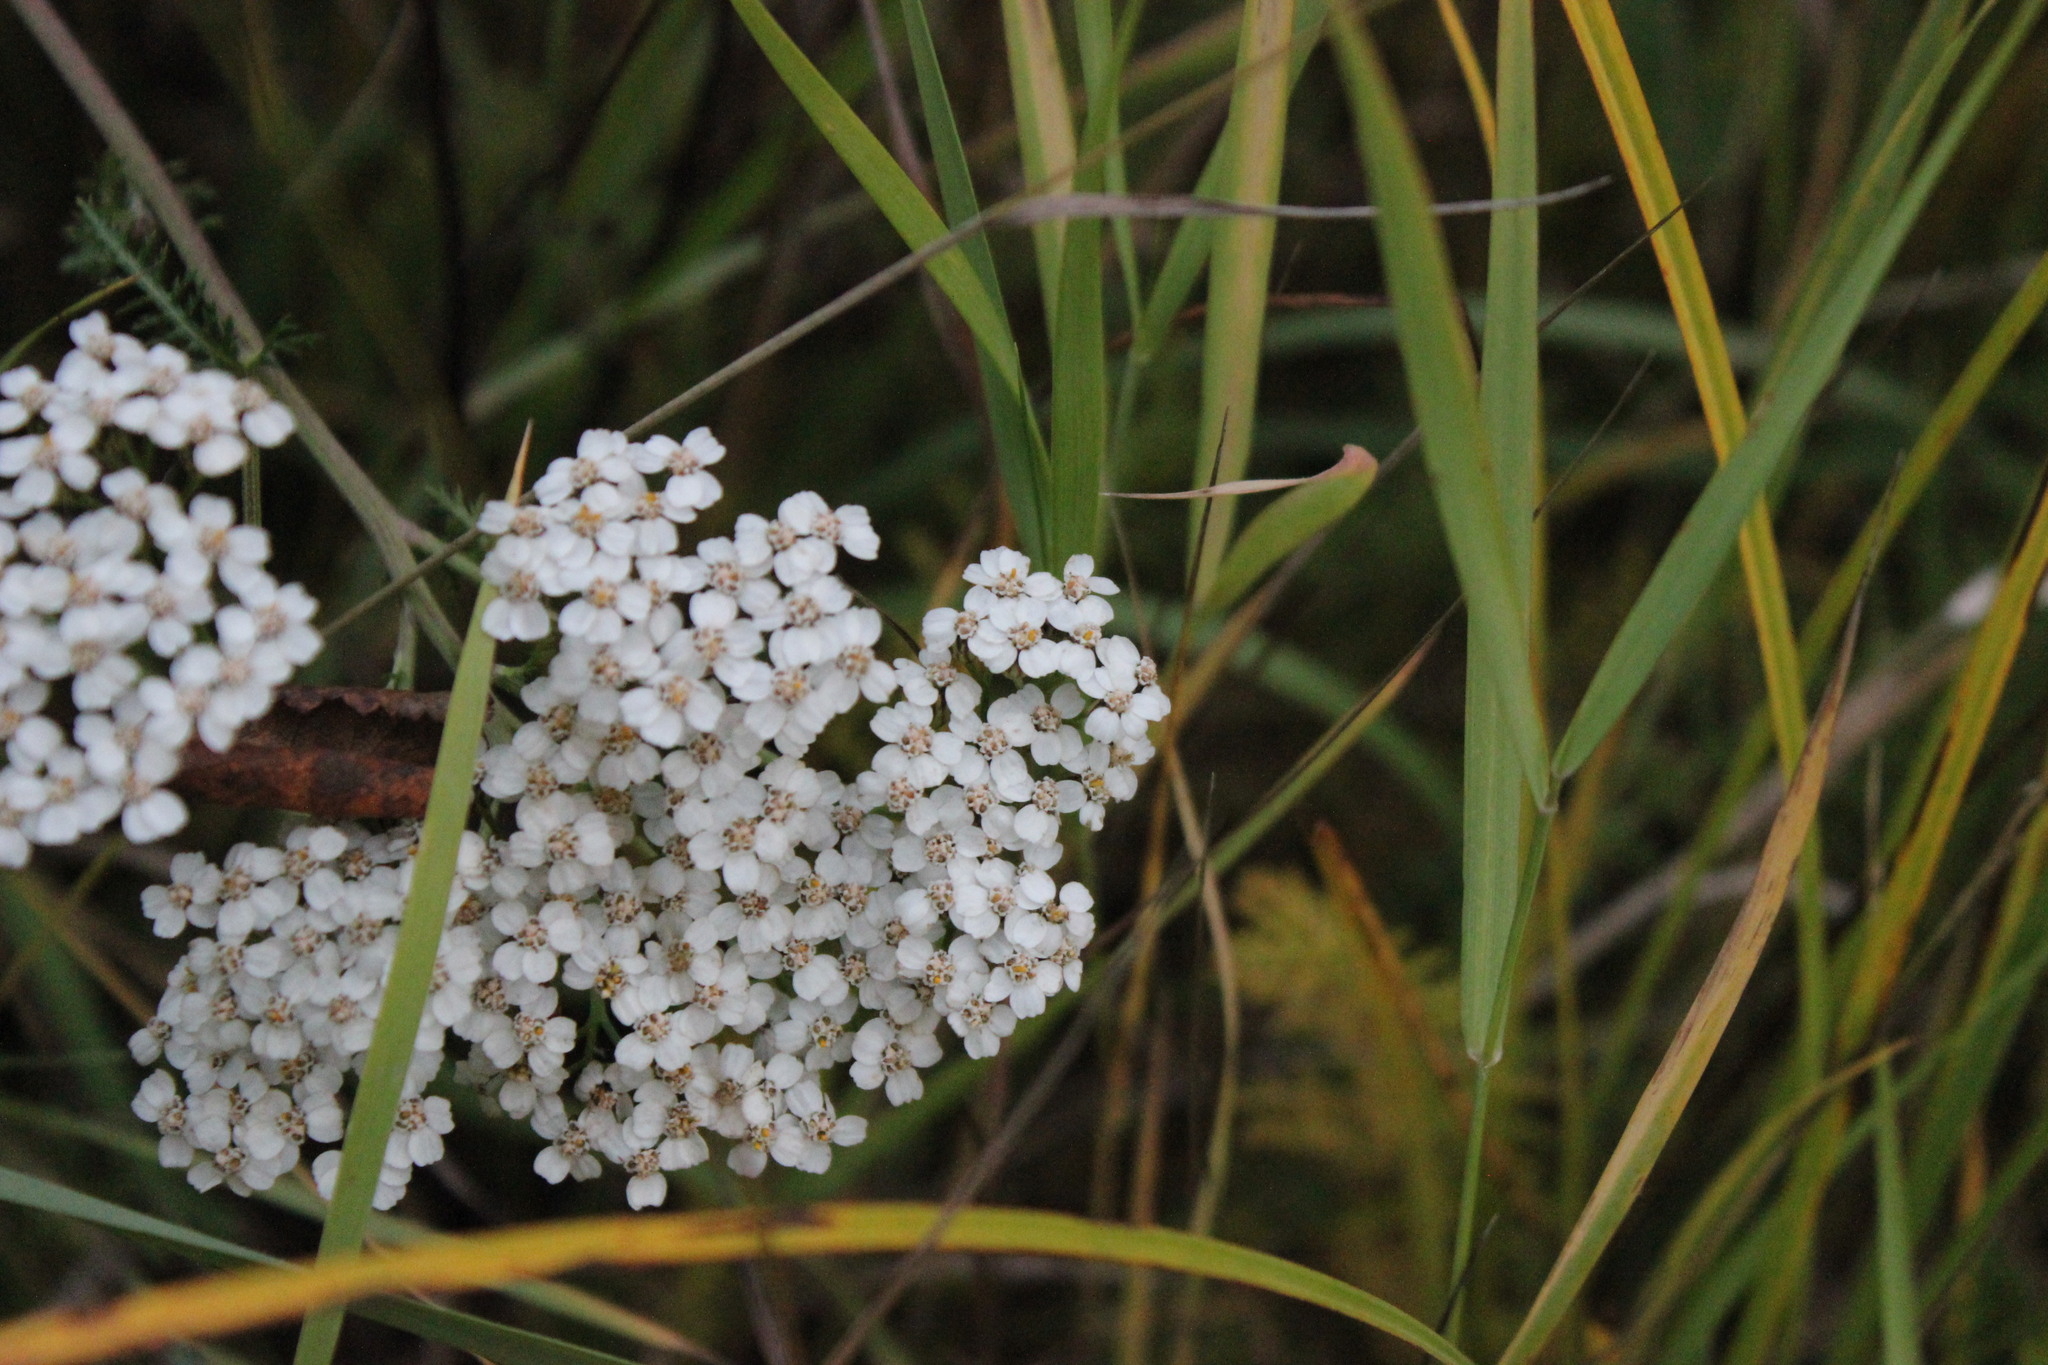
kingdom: Plantae
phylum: Tracheophyta
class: Magnoliopsida
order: Asterales
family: Asteraceae
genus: Achillea
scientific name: Achillea millefolium
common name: Yarrow
